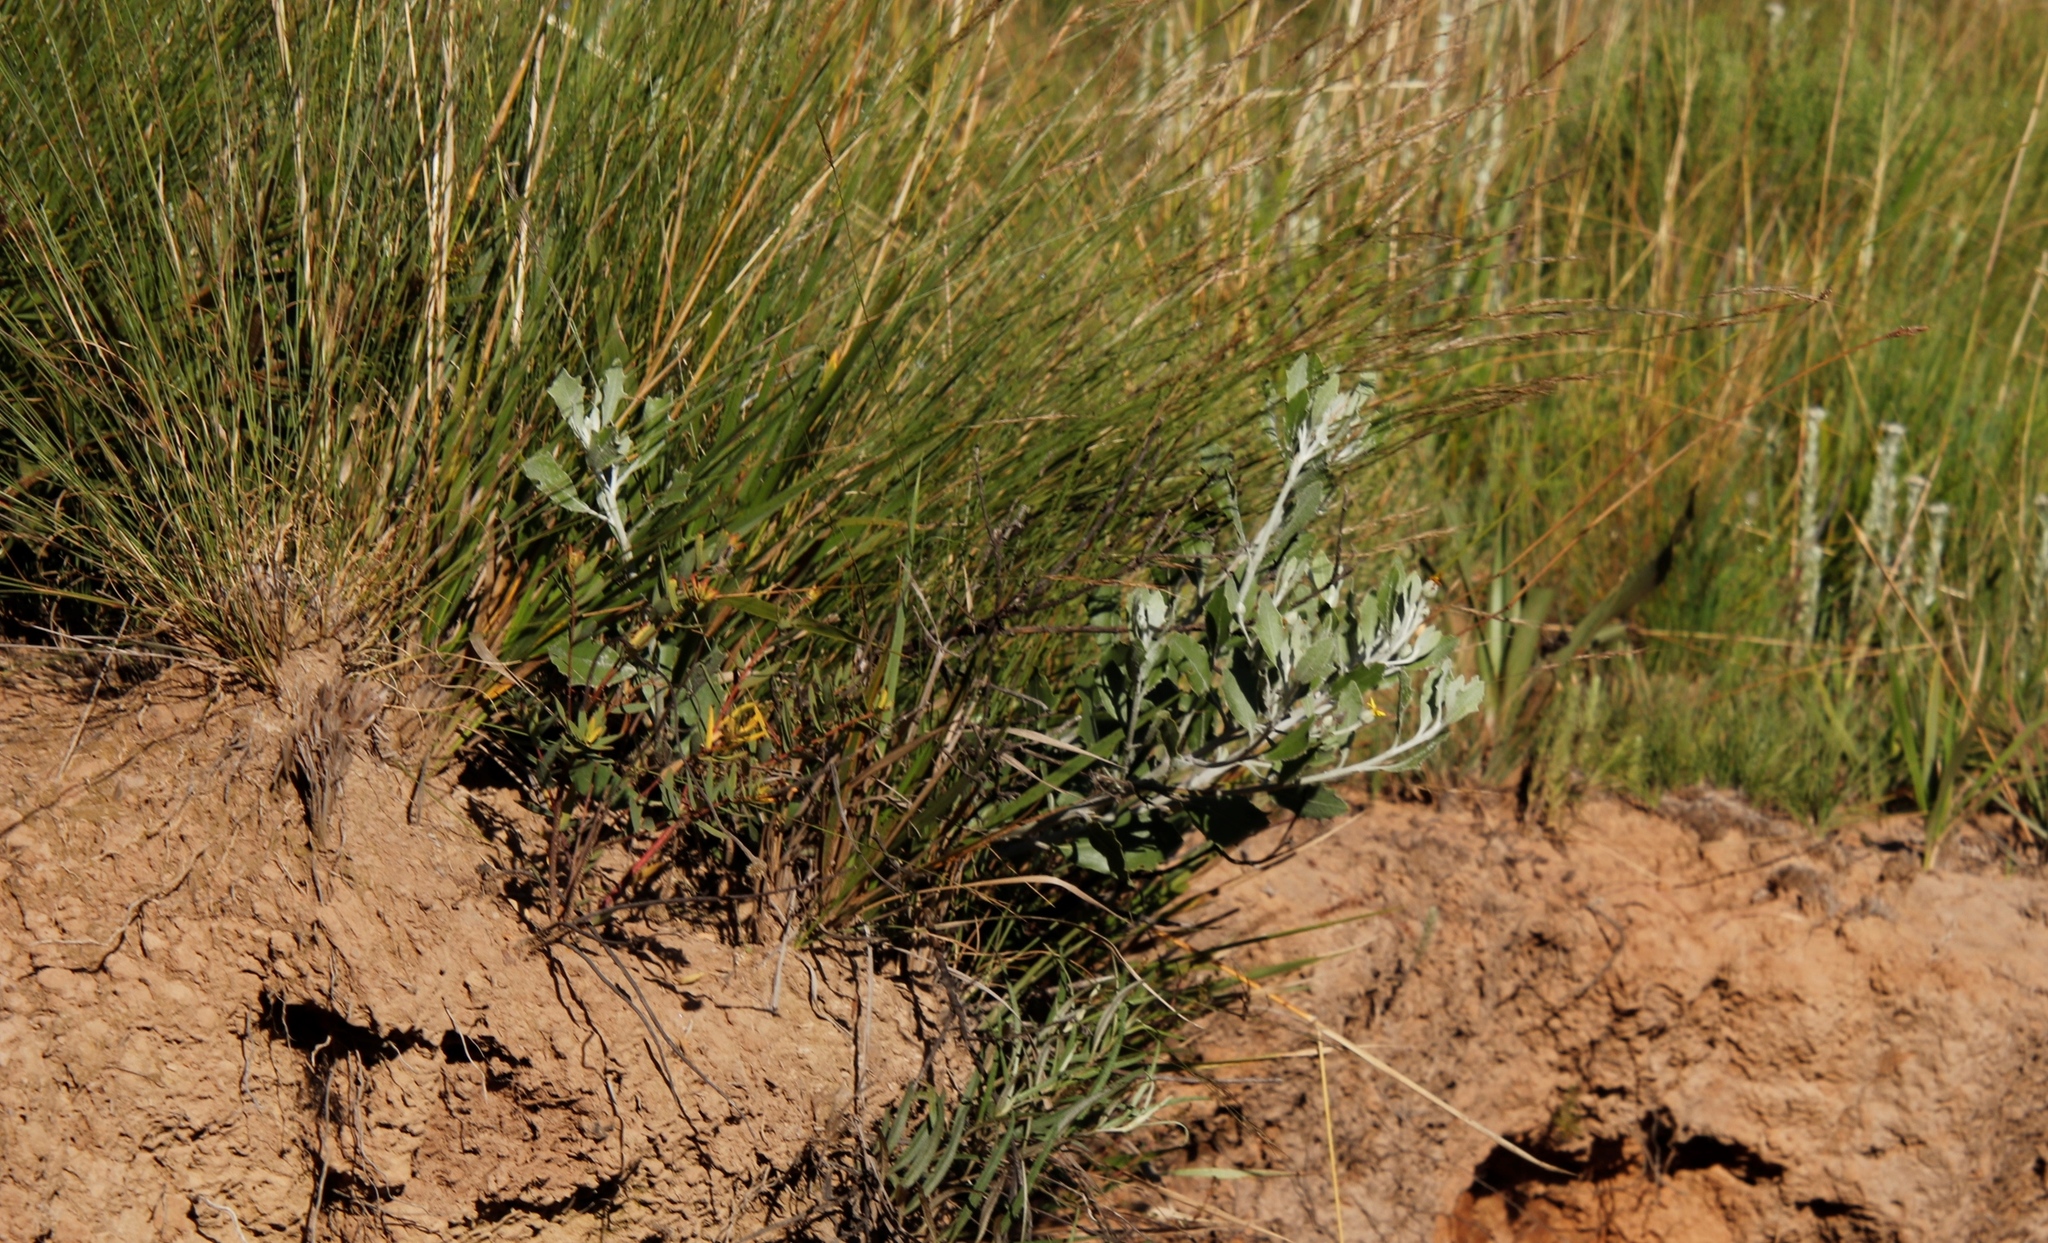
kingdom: Plantae
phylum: Tracheophyta
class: Magnoliopsida
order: Asterales
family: Asteraceae
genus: Osteospermum
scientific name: Osteospermum moniliferum
